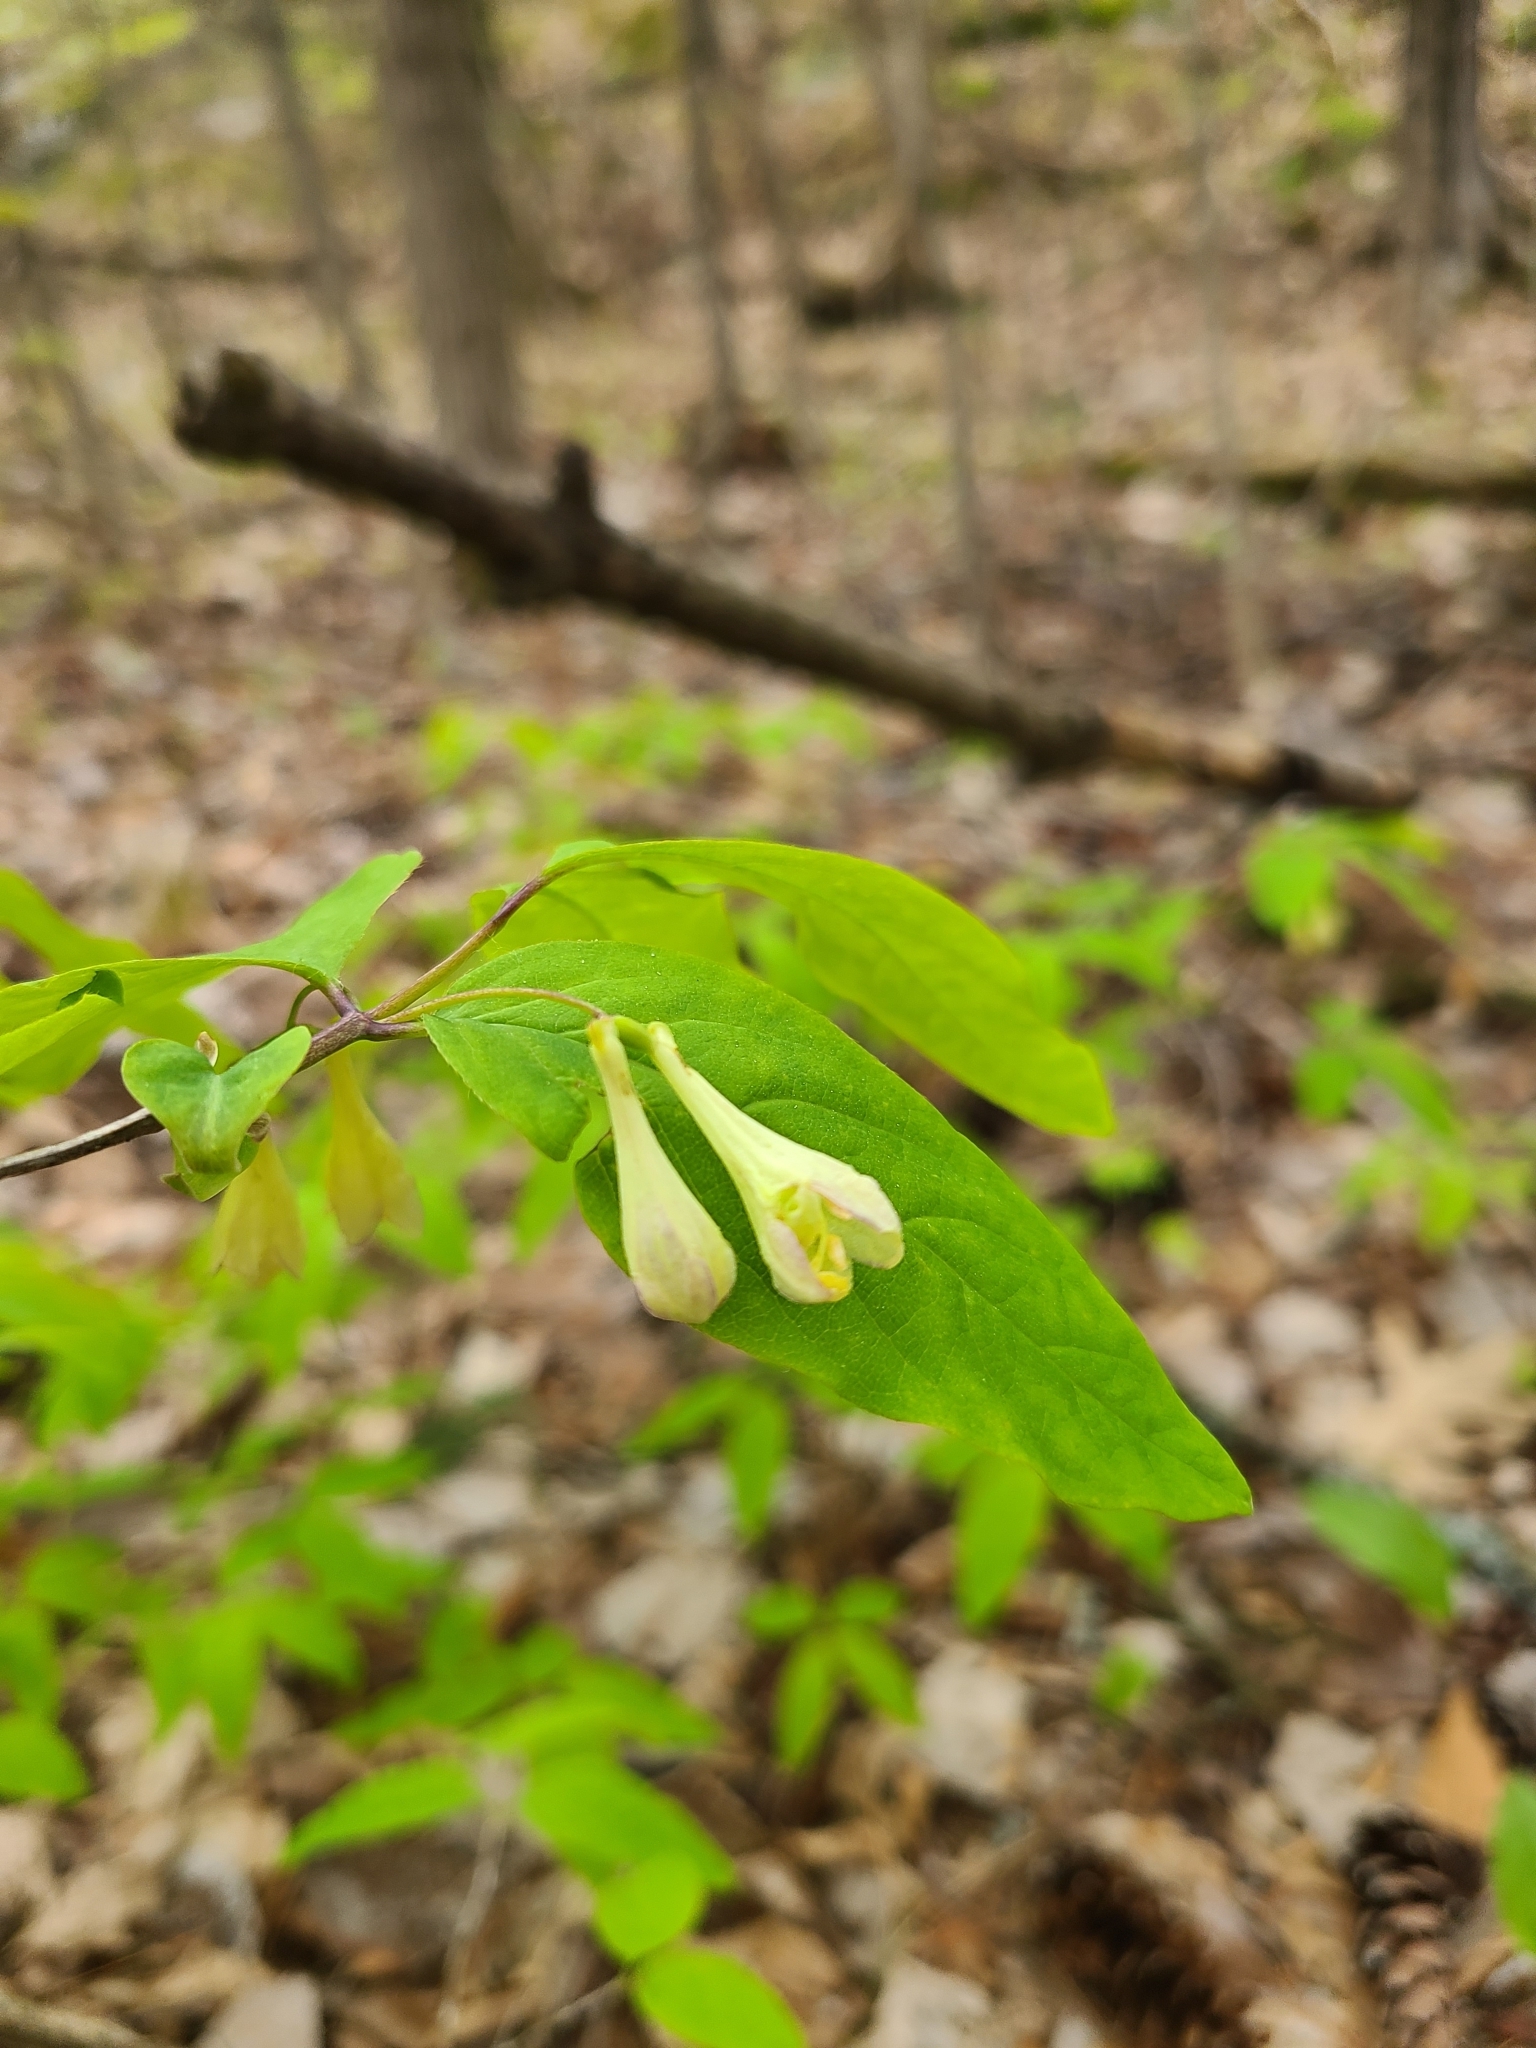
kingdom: Plantae
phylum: Tracheophyta
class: Magnoliopsida
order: Dipsacales
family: Caprifoliaceae
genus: Lonicera
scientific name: Lonicera canadensis
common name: American fly-honeysuckle
